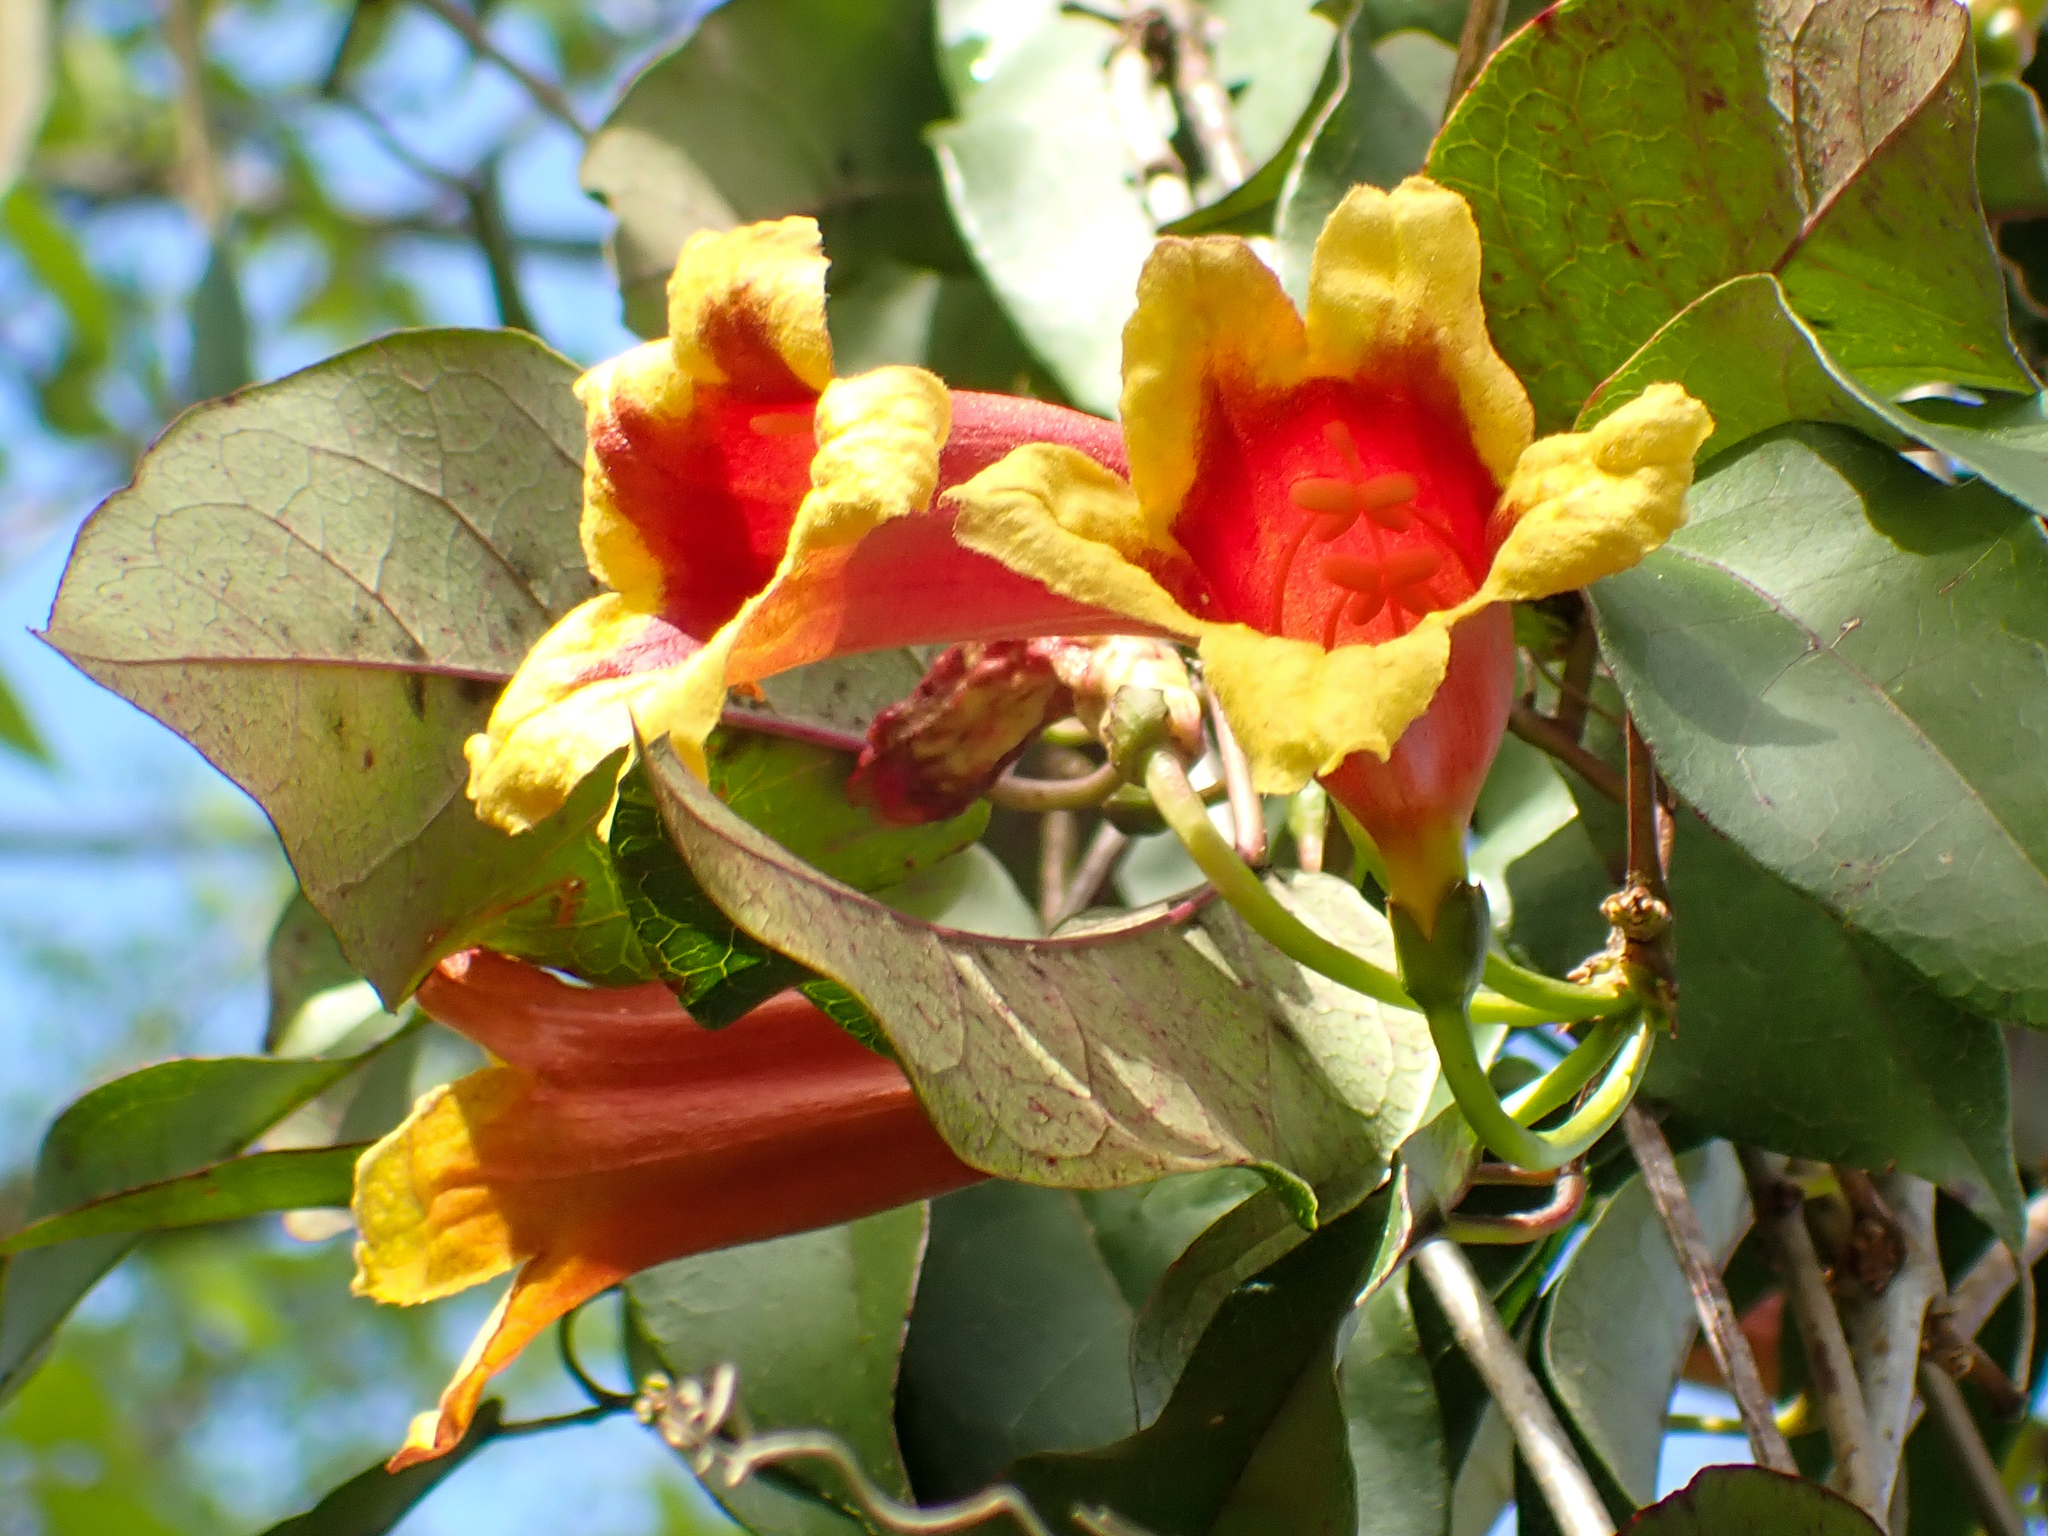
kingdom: Plantae
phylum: Tracheophyta
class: Magnoliopsida
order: Lamiales
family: Bignoniaceae
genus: Bignonia
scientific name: Bignonia capreolata
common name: Crossvine
